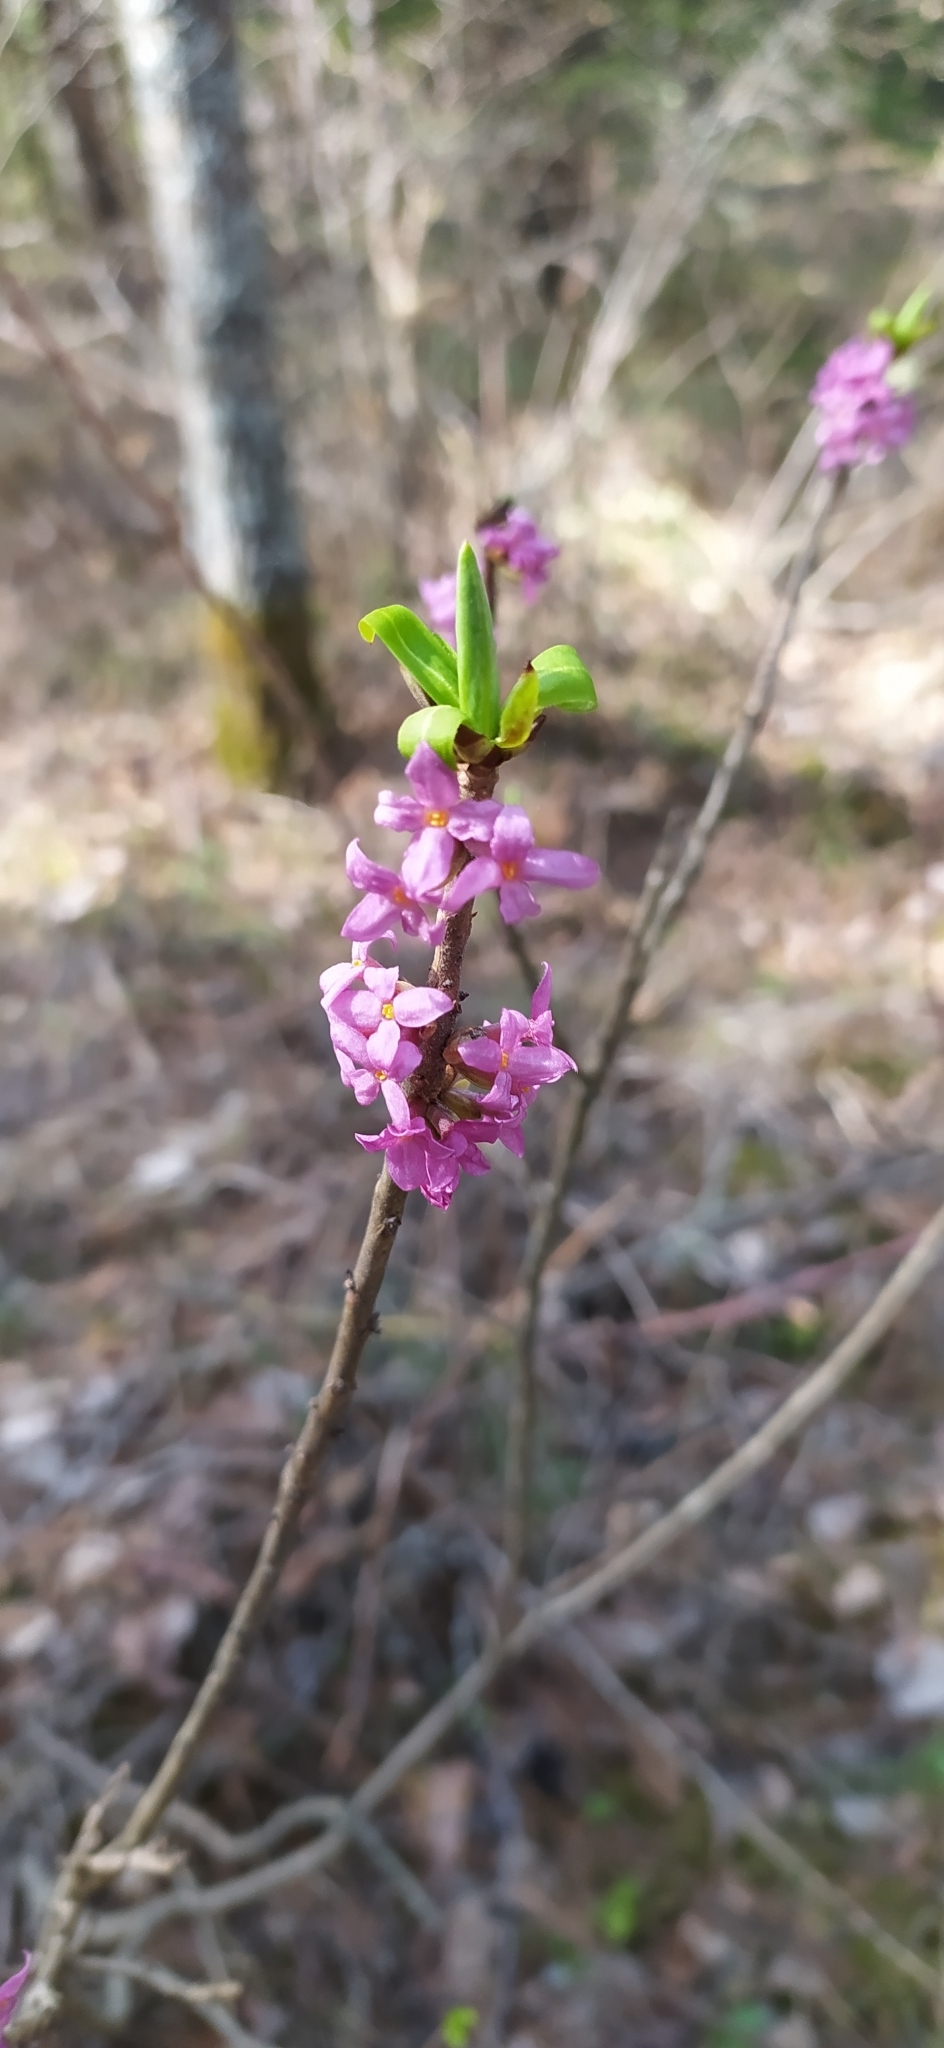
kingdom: Plantae
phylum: Tracheophyta
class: Magnoliopsida
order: Malvales
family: Thymelaeaceae
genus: Daphne
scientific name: Daphne mezereum
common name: Mezereon
